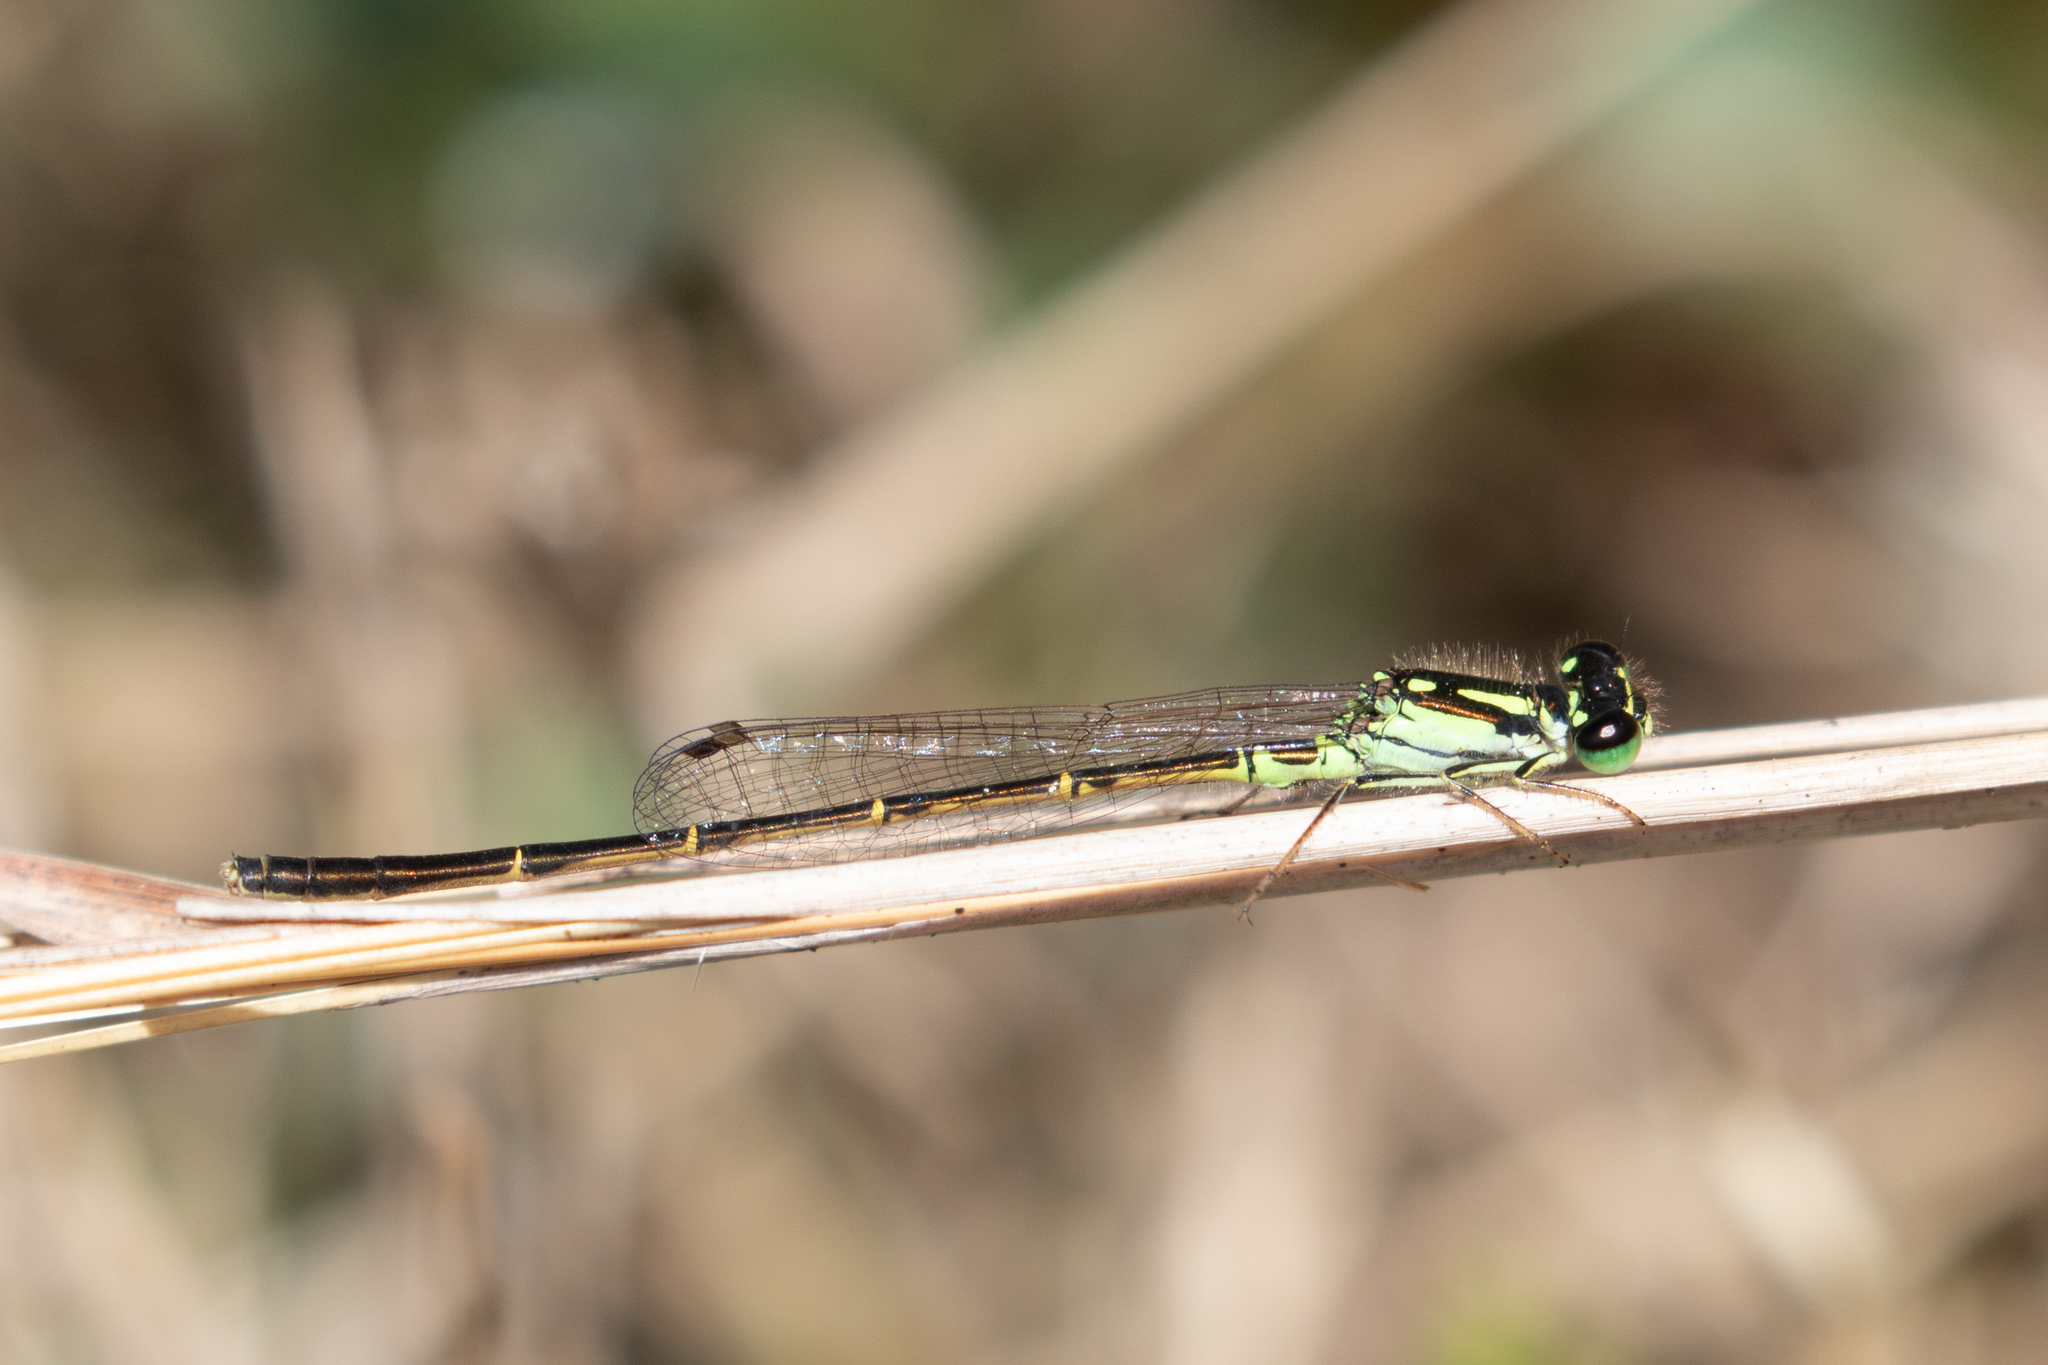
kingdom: Animalia
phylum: Arthropoda
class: Insecta
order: Odonata
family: Coenagrionidae
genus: Ischnura
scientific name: Ischnura posita
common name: Fragile forktail
